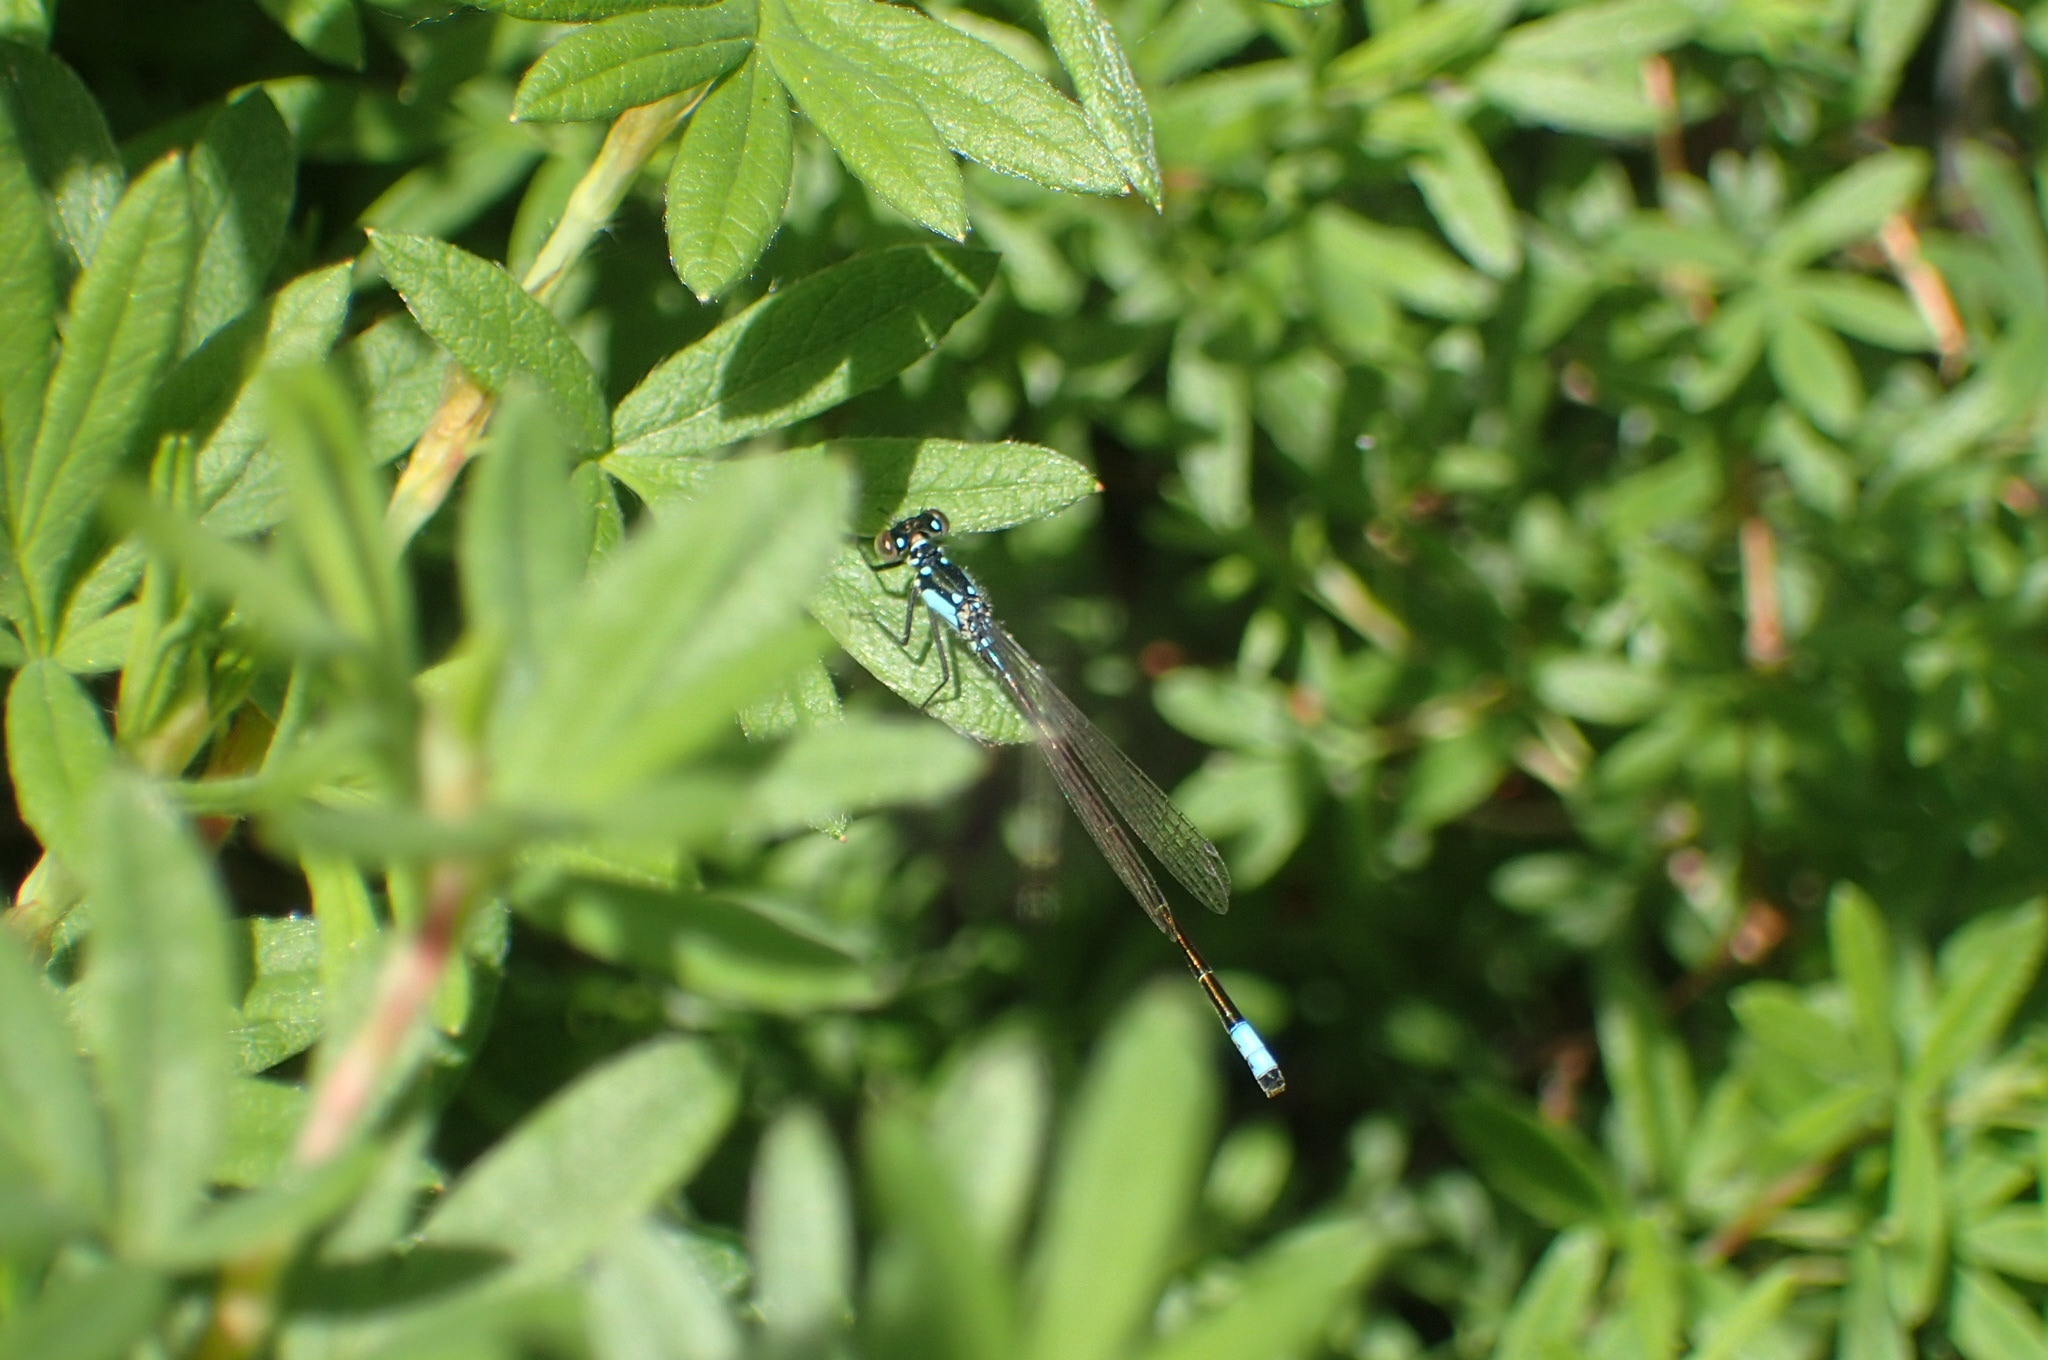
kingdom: Animalia
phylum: Arthropoda
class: Insecta
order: Odonata
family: Coenagrionidae
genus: Ischnura
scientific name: Ischnura cervula
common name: Pacific forktail
